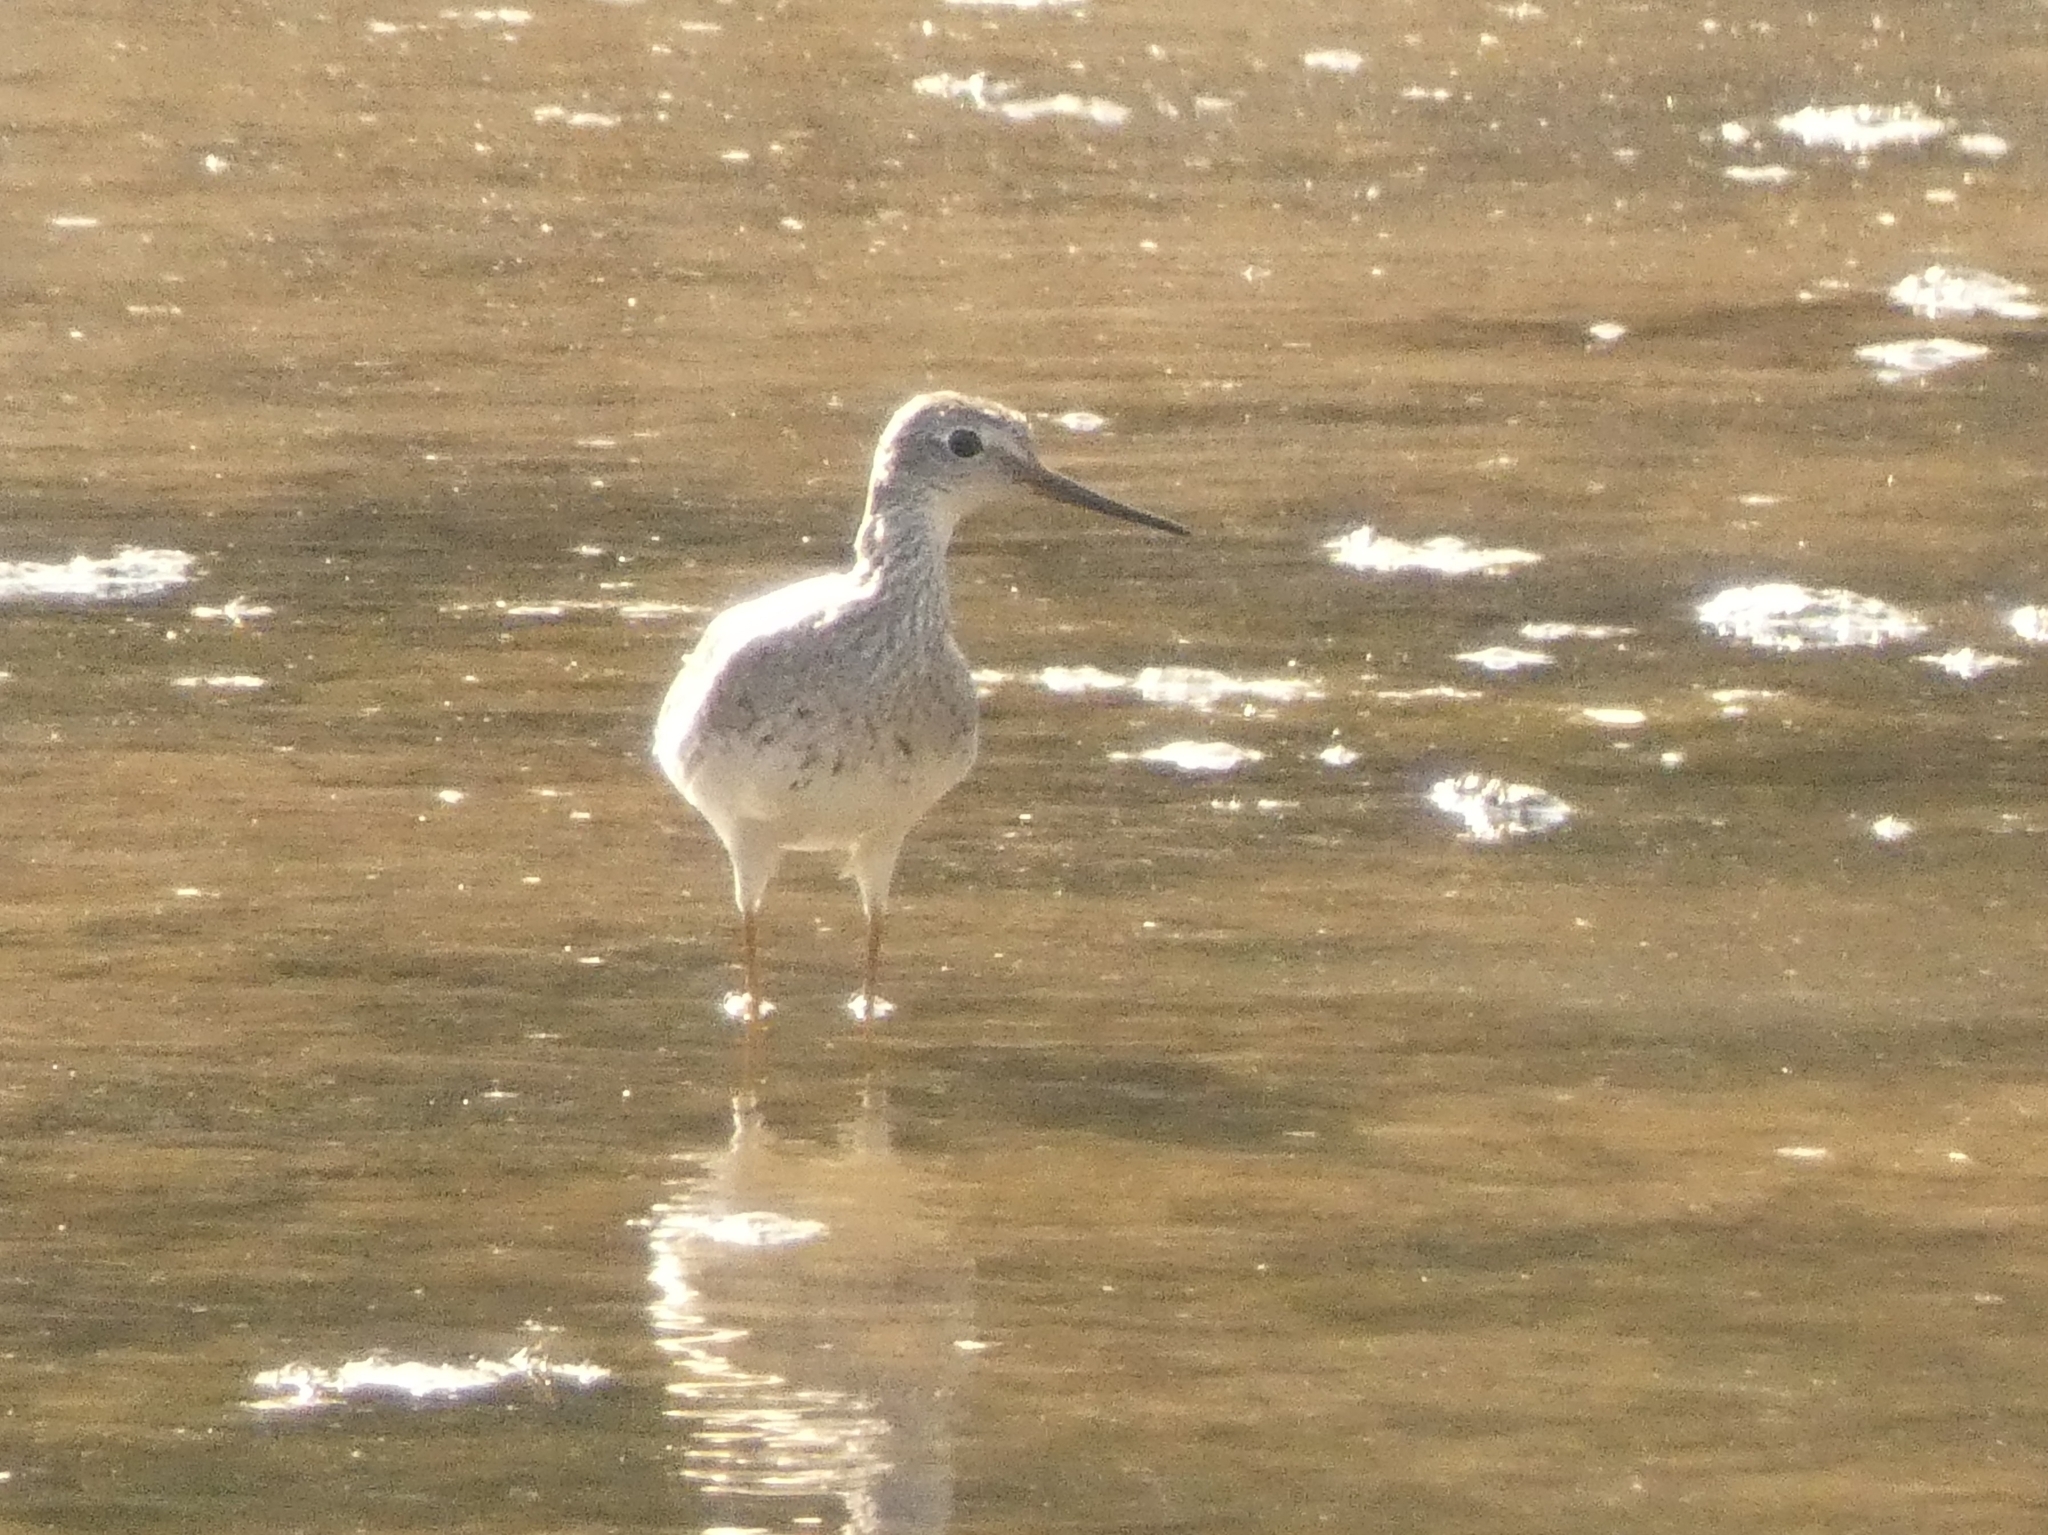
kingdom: Animalia
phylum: Chordata
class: Aves
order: Charadriiformes
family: Scolopacidae
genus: Tringa
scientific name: Tringa flavipes
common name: Lesser yellowlegs
